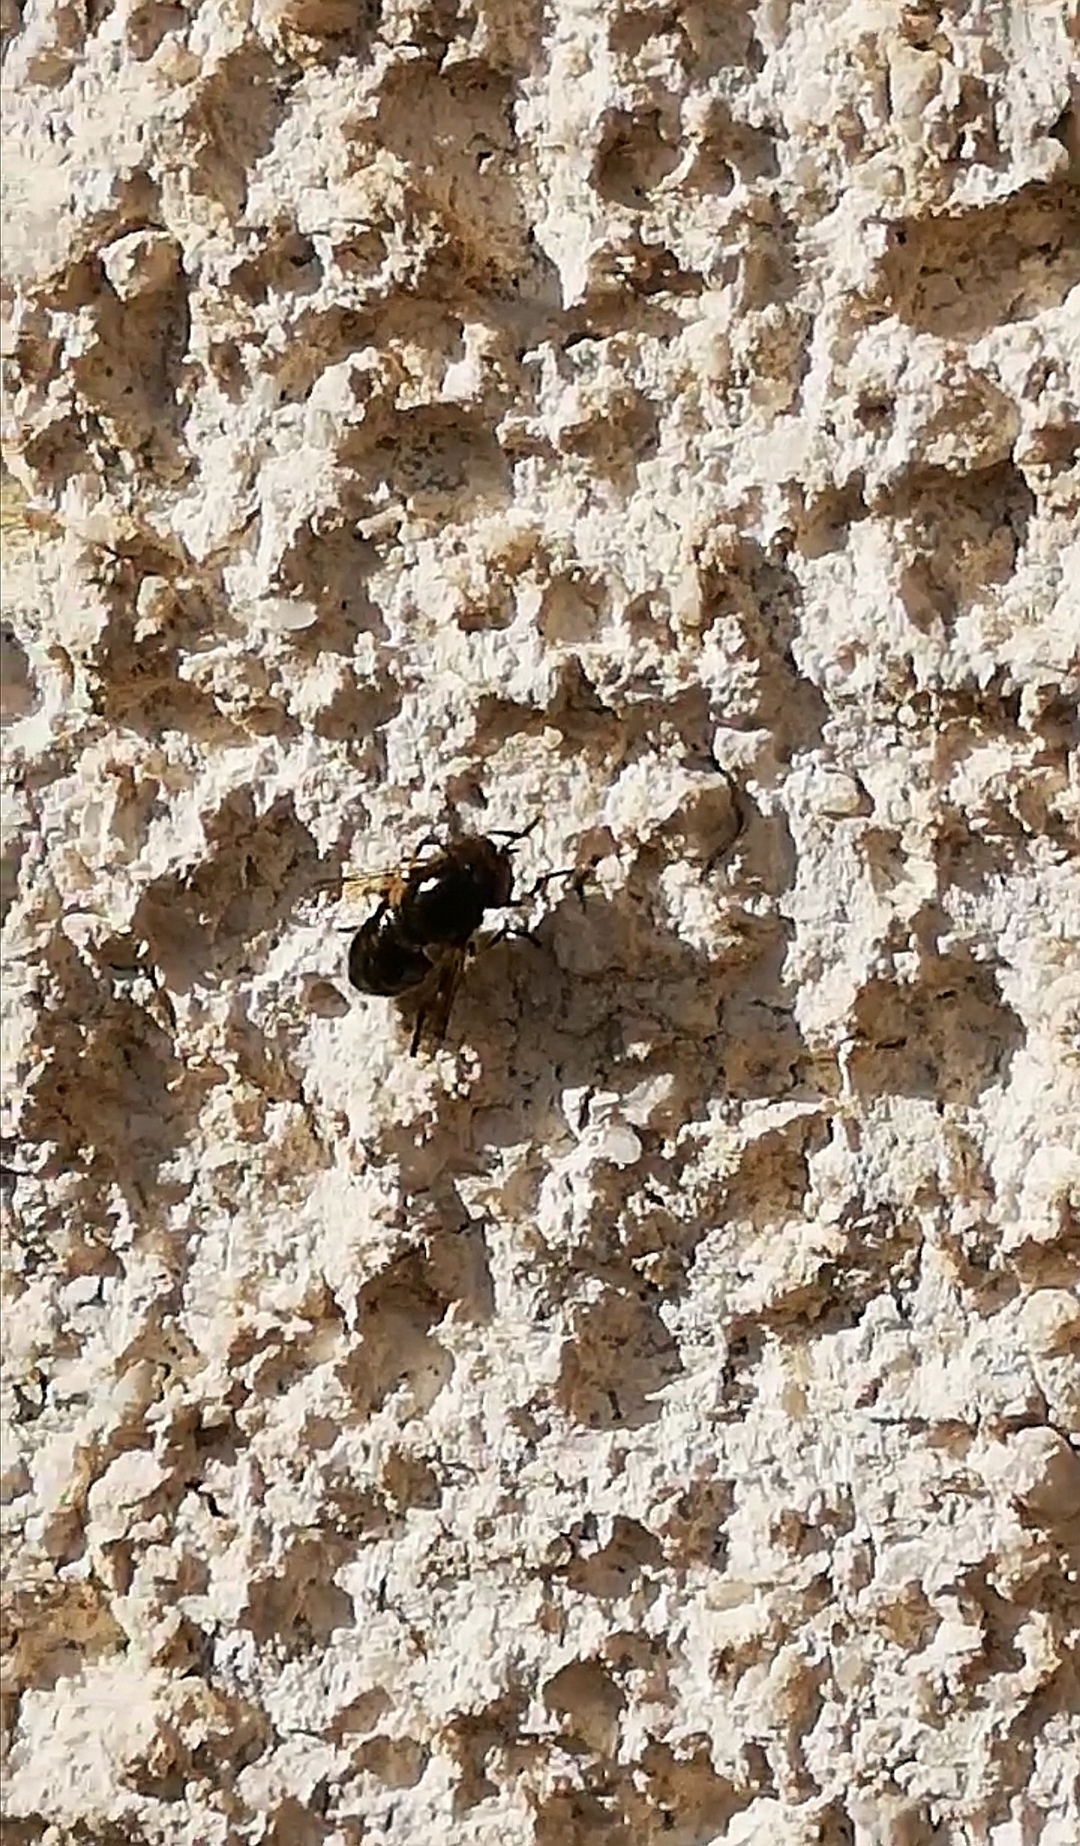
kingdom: Animalia
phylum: Arthropoda
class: Insecta
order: Diptera
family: Syrphidae
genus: Eristalinus
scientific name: Eristalinus aeneus
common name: Syrphid fly
